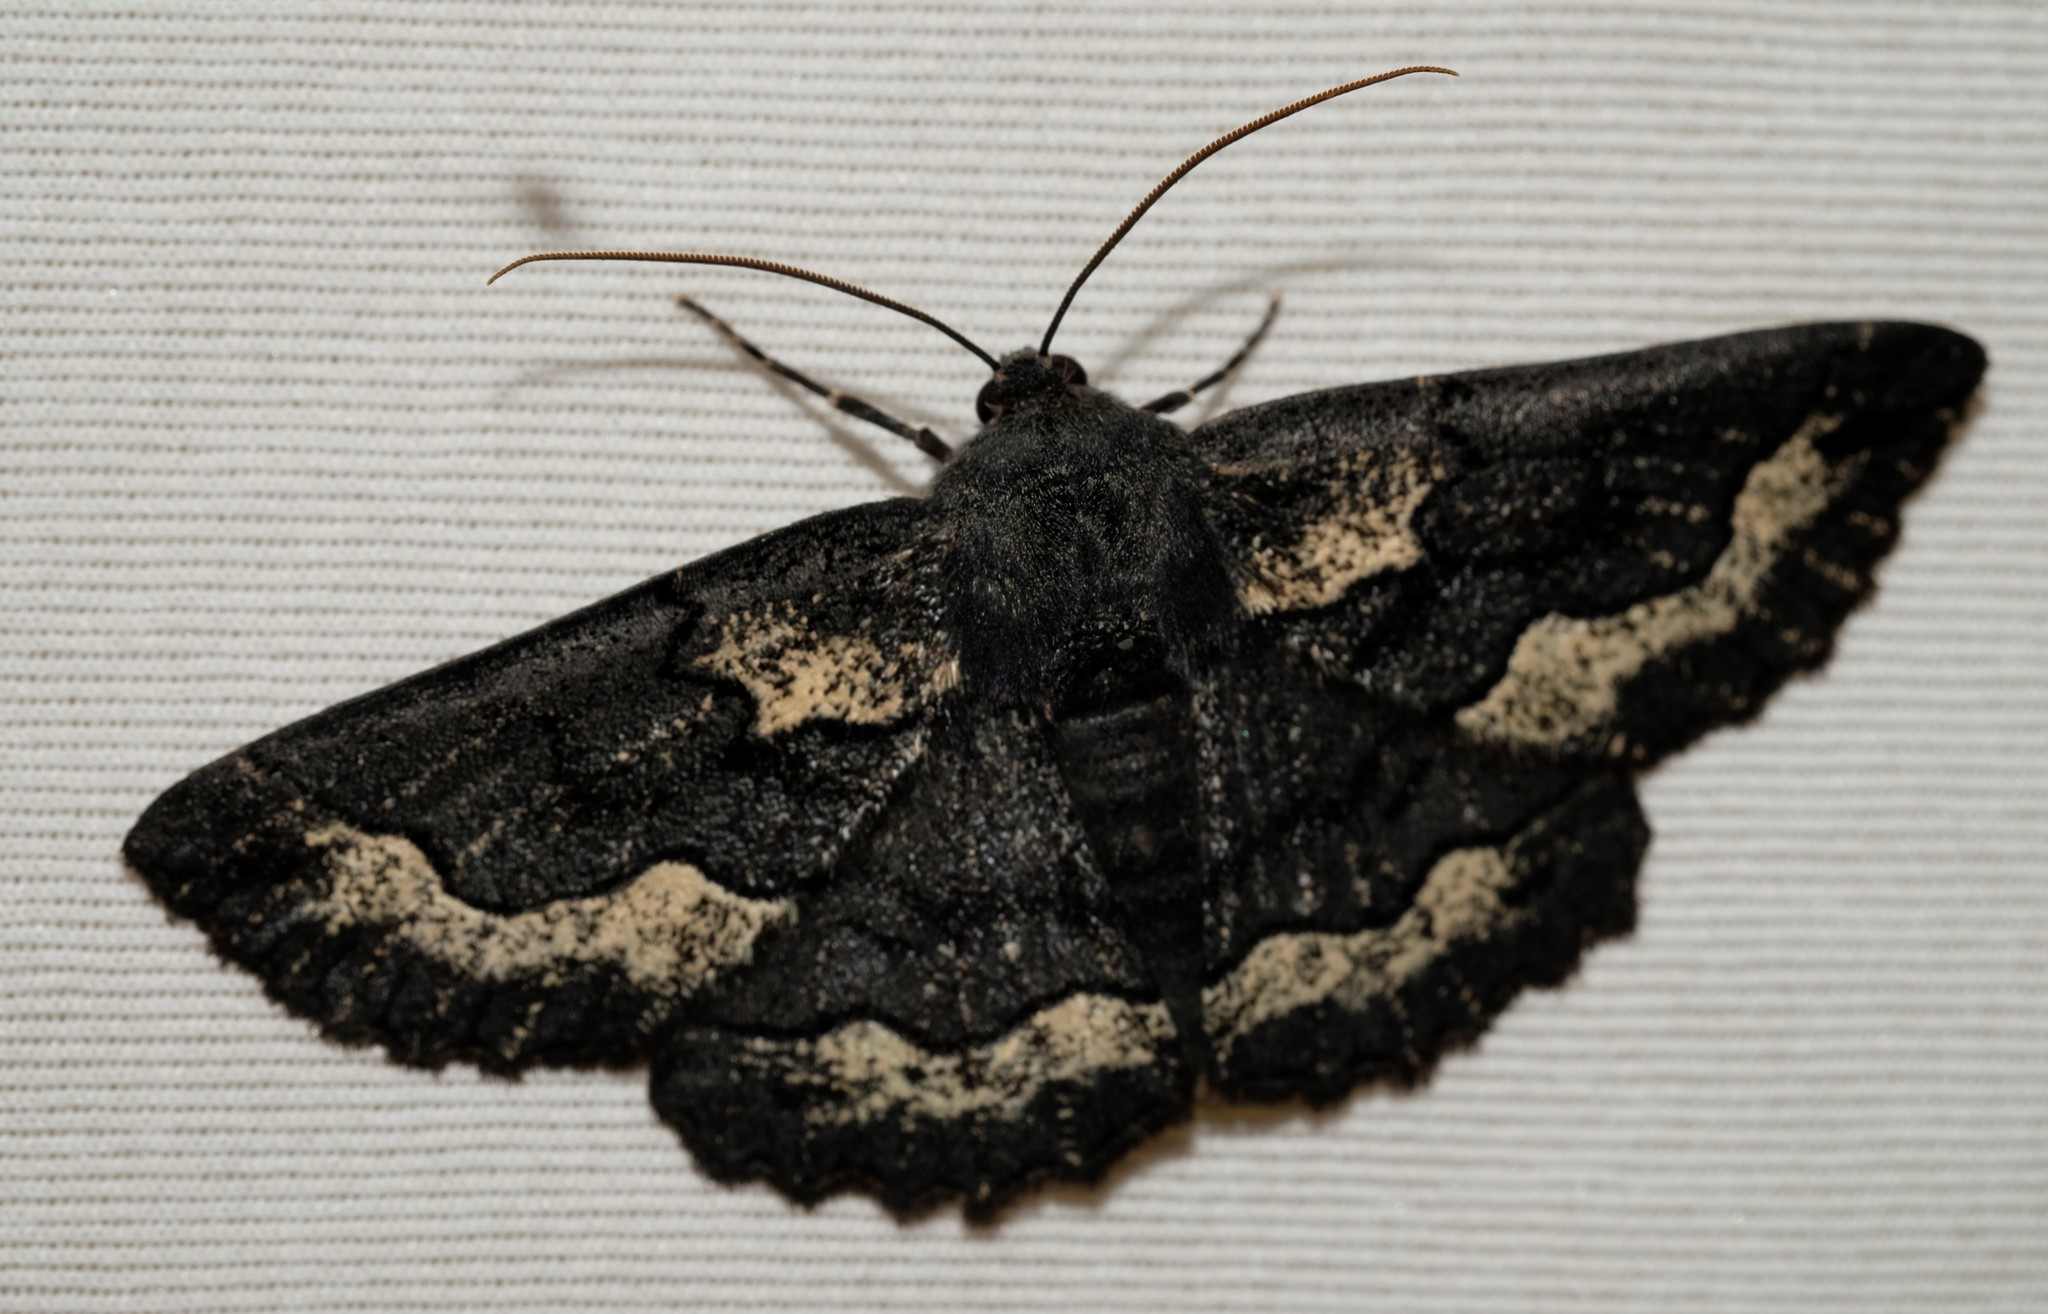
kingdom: Animalia
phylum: Arthropoda
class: Insecta
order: Lepidoptera
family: Geometridae
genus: Melanodes
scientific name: Melanodes anthracitaria
